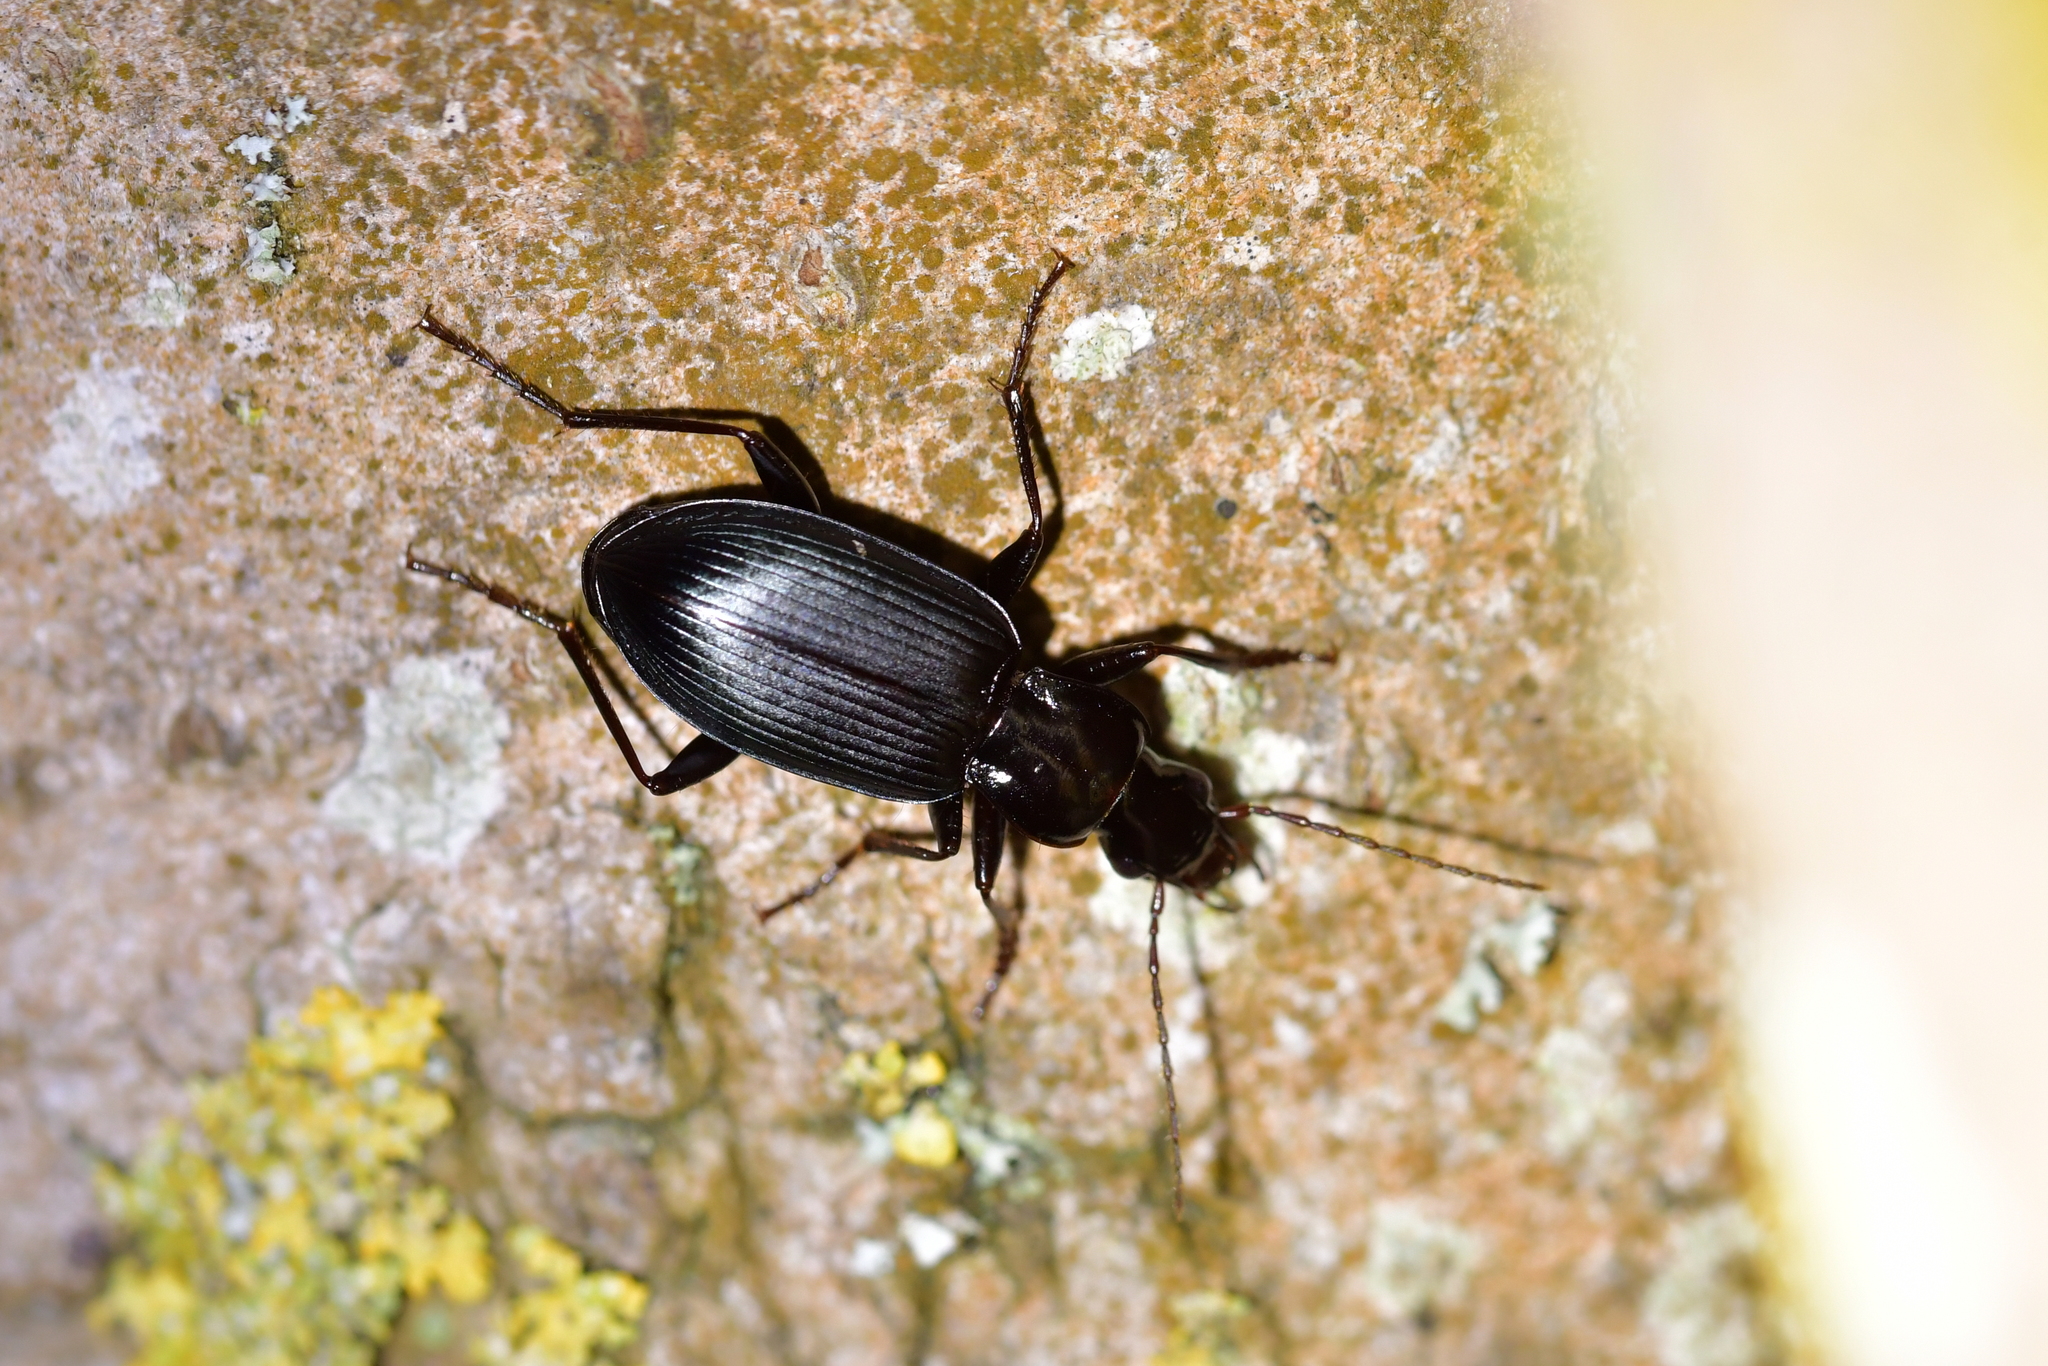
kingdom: Animalia
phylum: Arthropoda
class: Insecta
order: Coleoptera
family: Carabidae
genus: Laemostenus
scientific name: Laemostenus complanatus
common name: Cosmopolitan ground beetle
